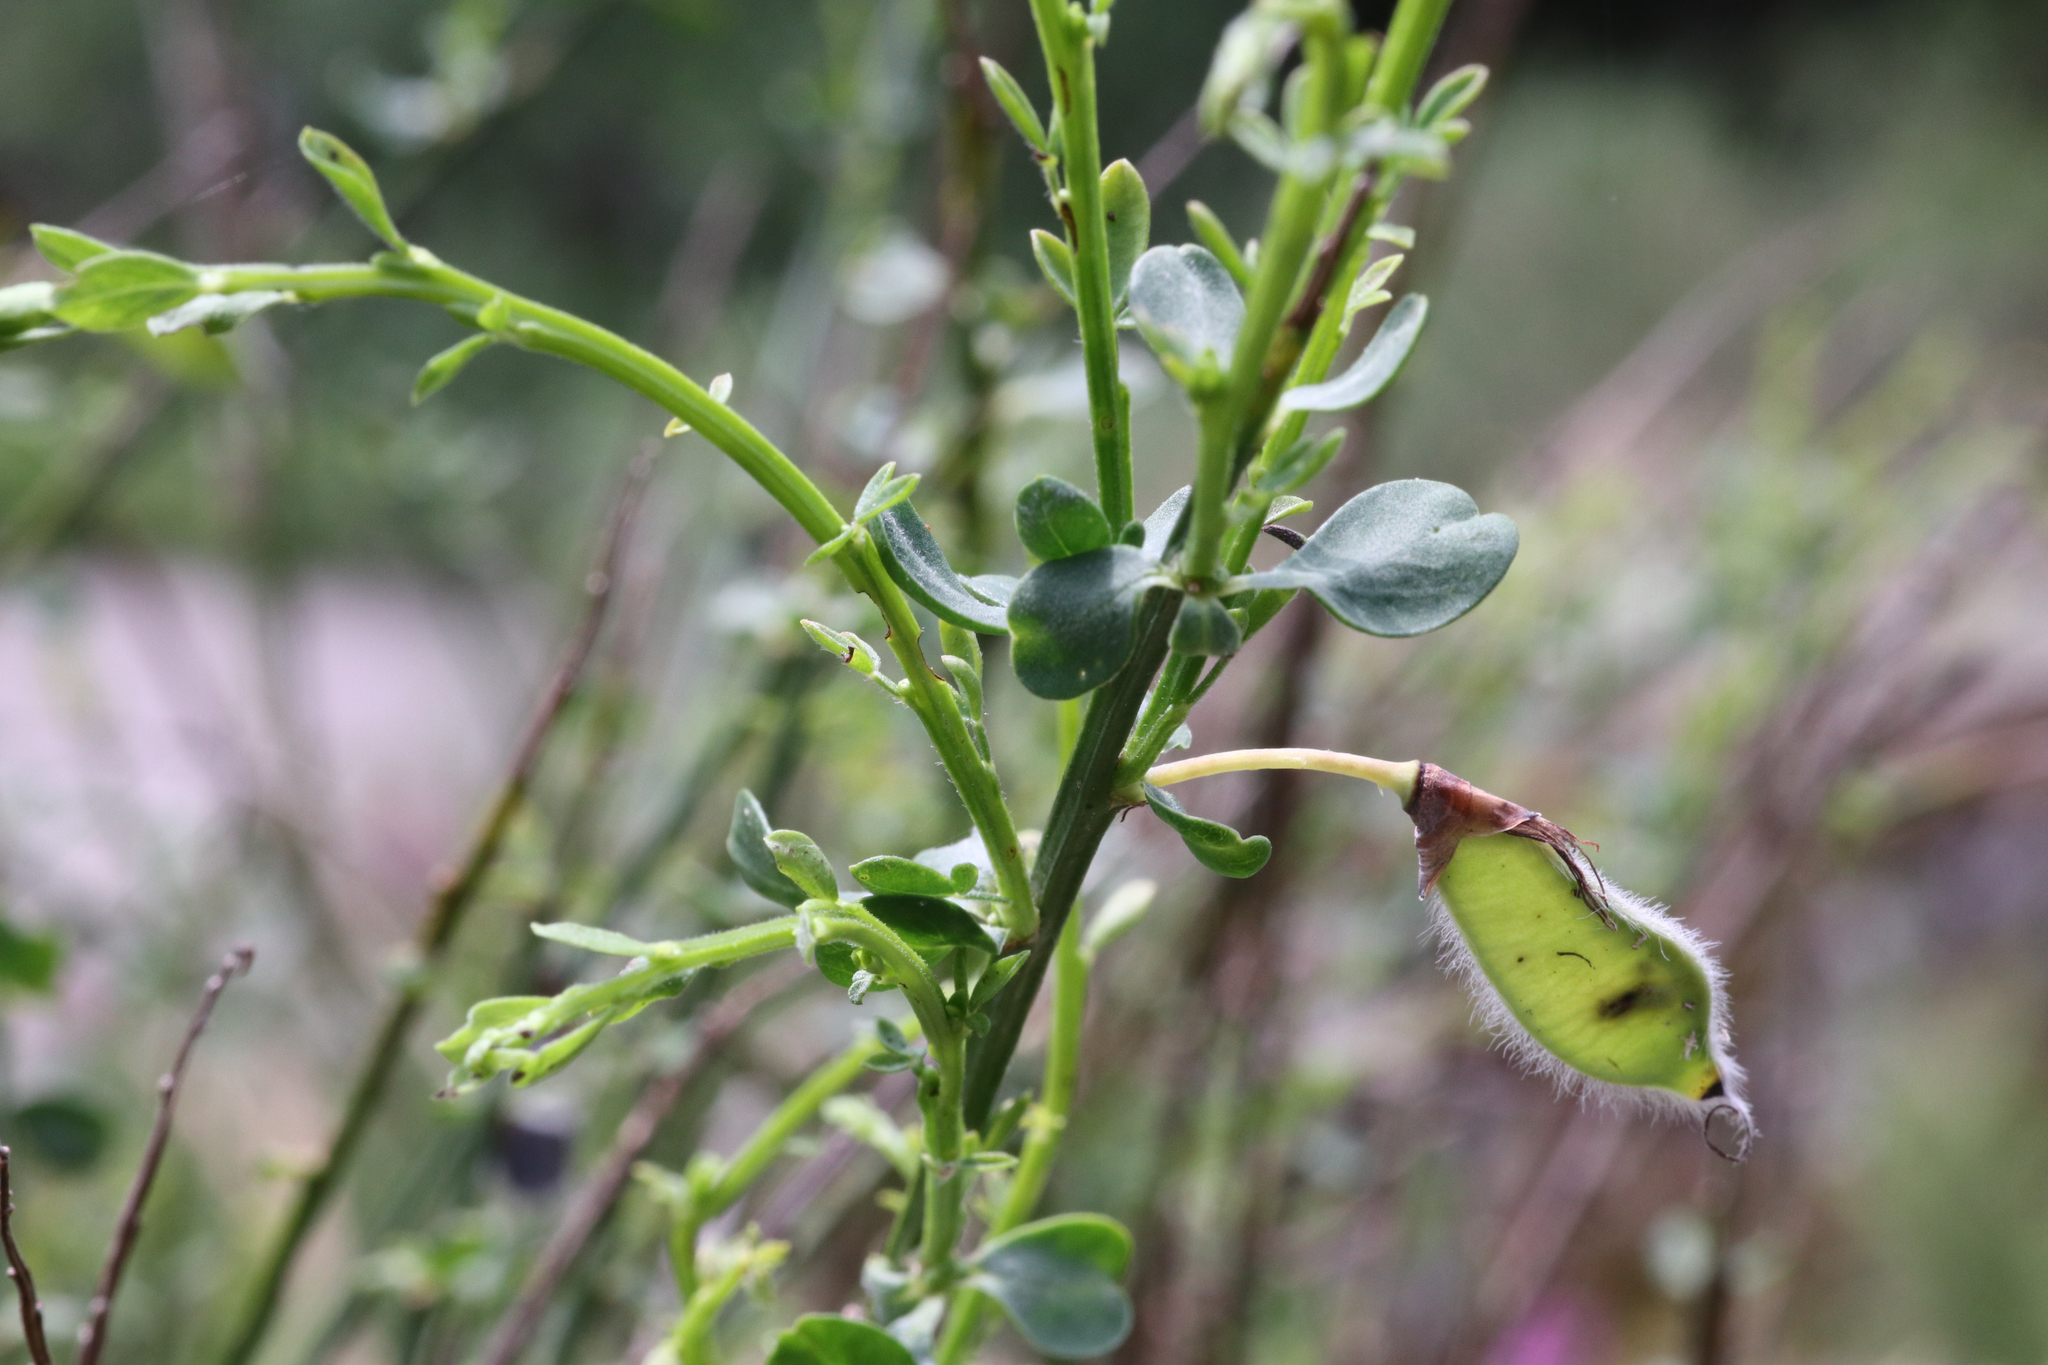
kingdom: Plantae
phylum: Tracheophyta
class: Magnoliopsida
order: Fabales
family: Fabaceae
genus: Cytisus
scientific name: Cytisus scoparius
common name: Scotch broom
